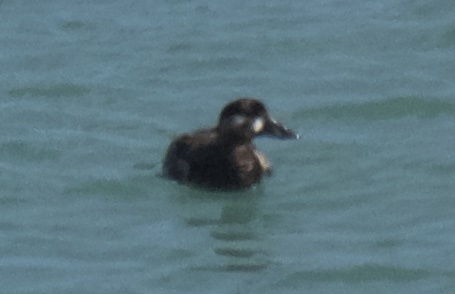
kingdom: Animalia
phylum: Chordata
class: Aves
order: Anseriformes
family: Anatidae
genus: Melanitta
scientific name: Melanitta perspicillata
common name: Surf scoter
